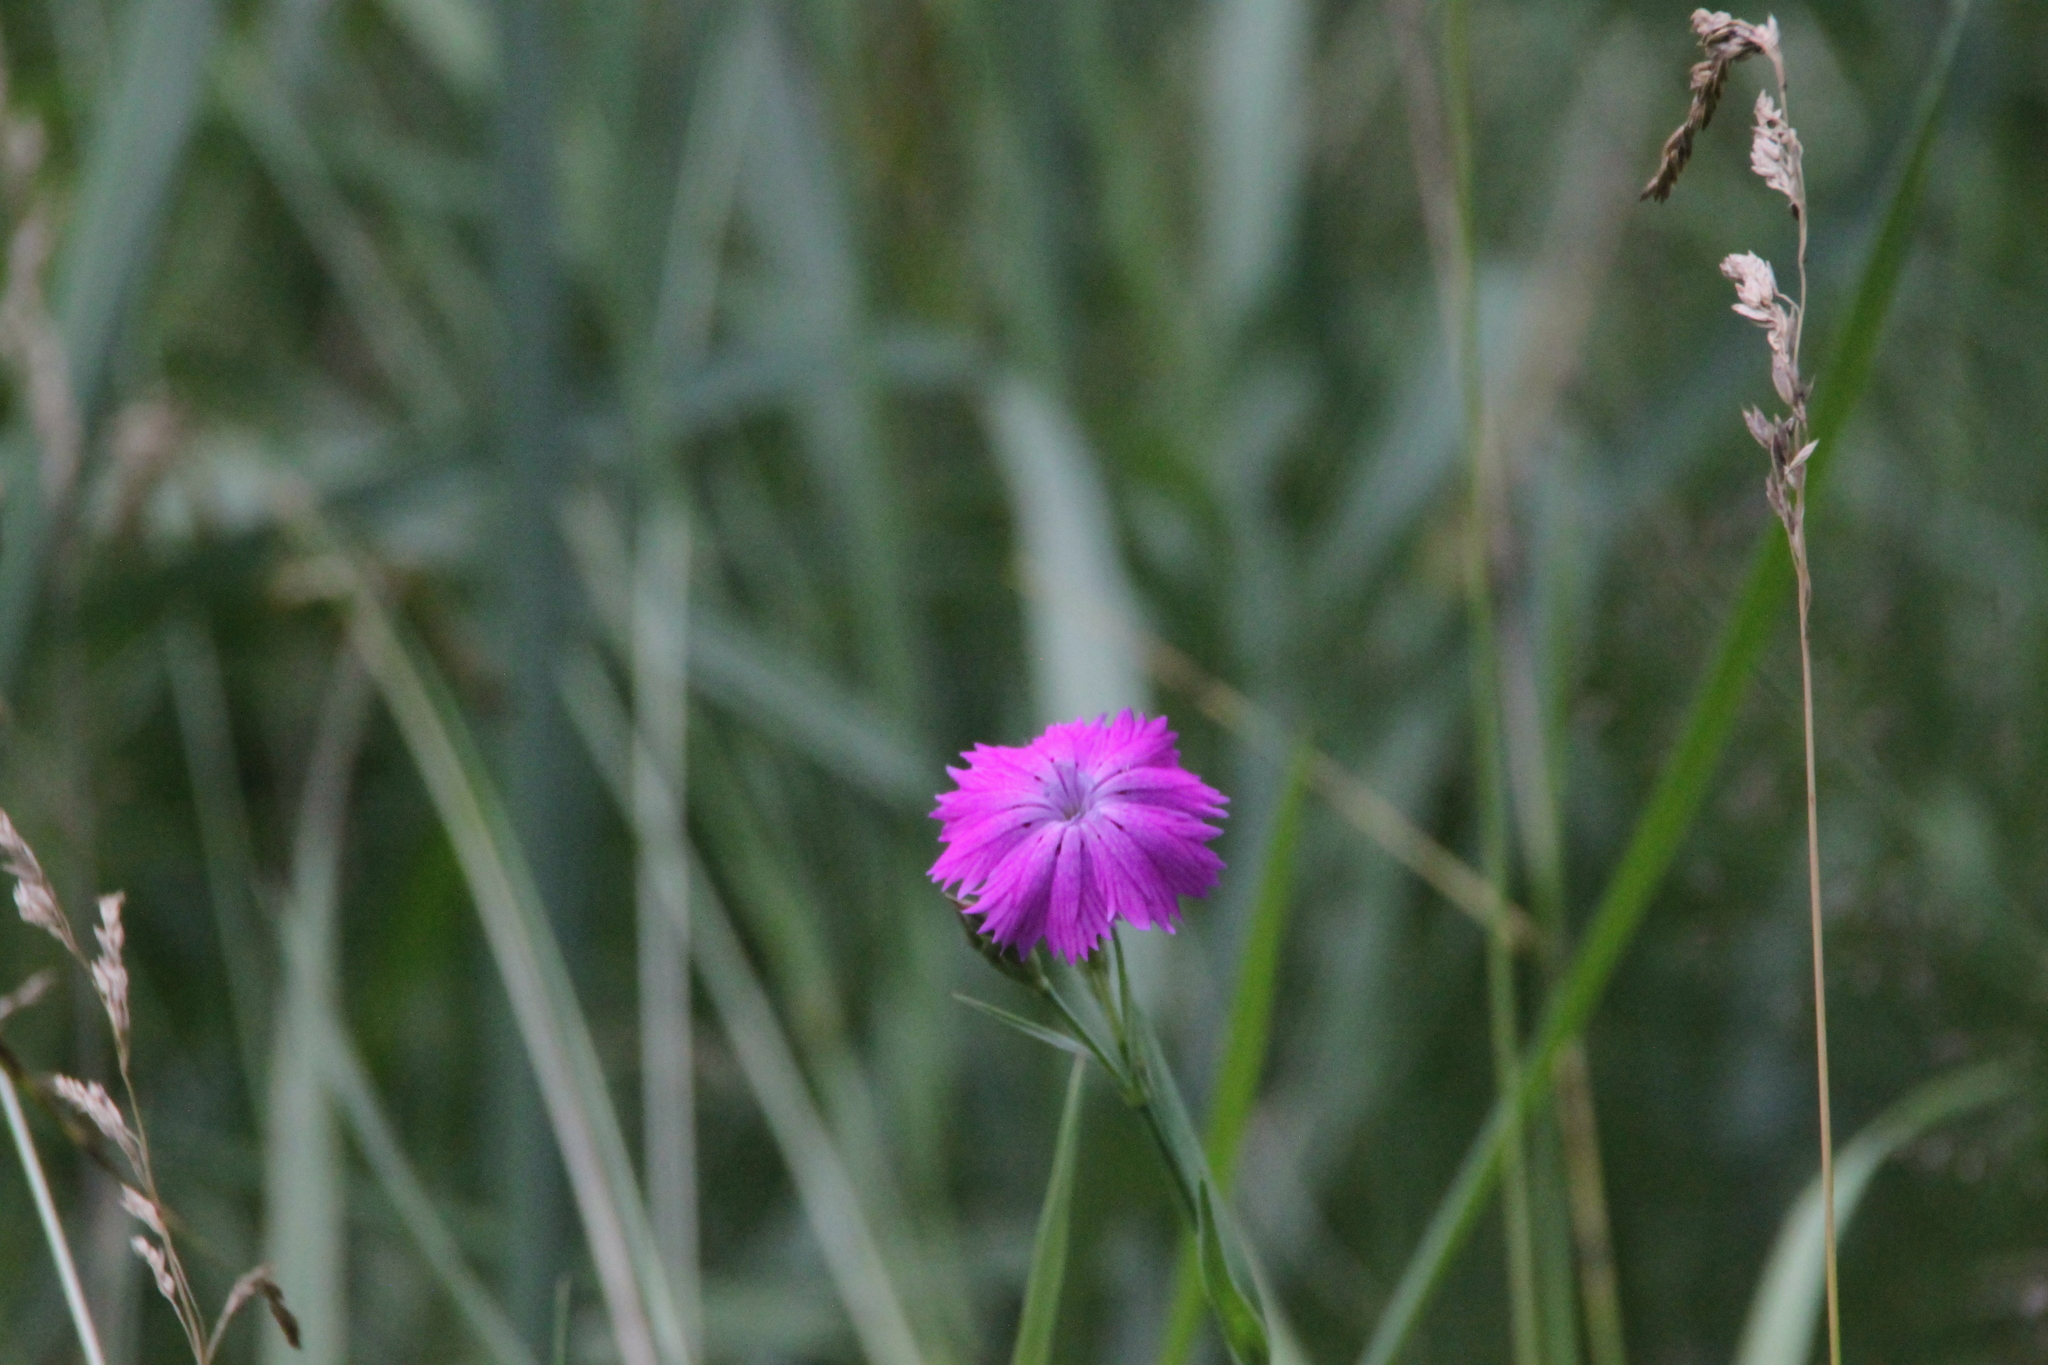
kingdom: Plantae
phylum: Tracheophyta
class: Magnoliopsida
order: Caryophyllales
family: Caryophyllaceae
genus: Dianthus
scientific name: Dianthus chinensis
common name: Rainbow pink
